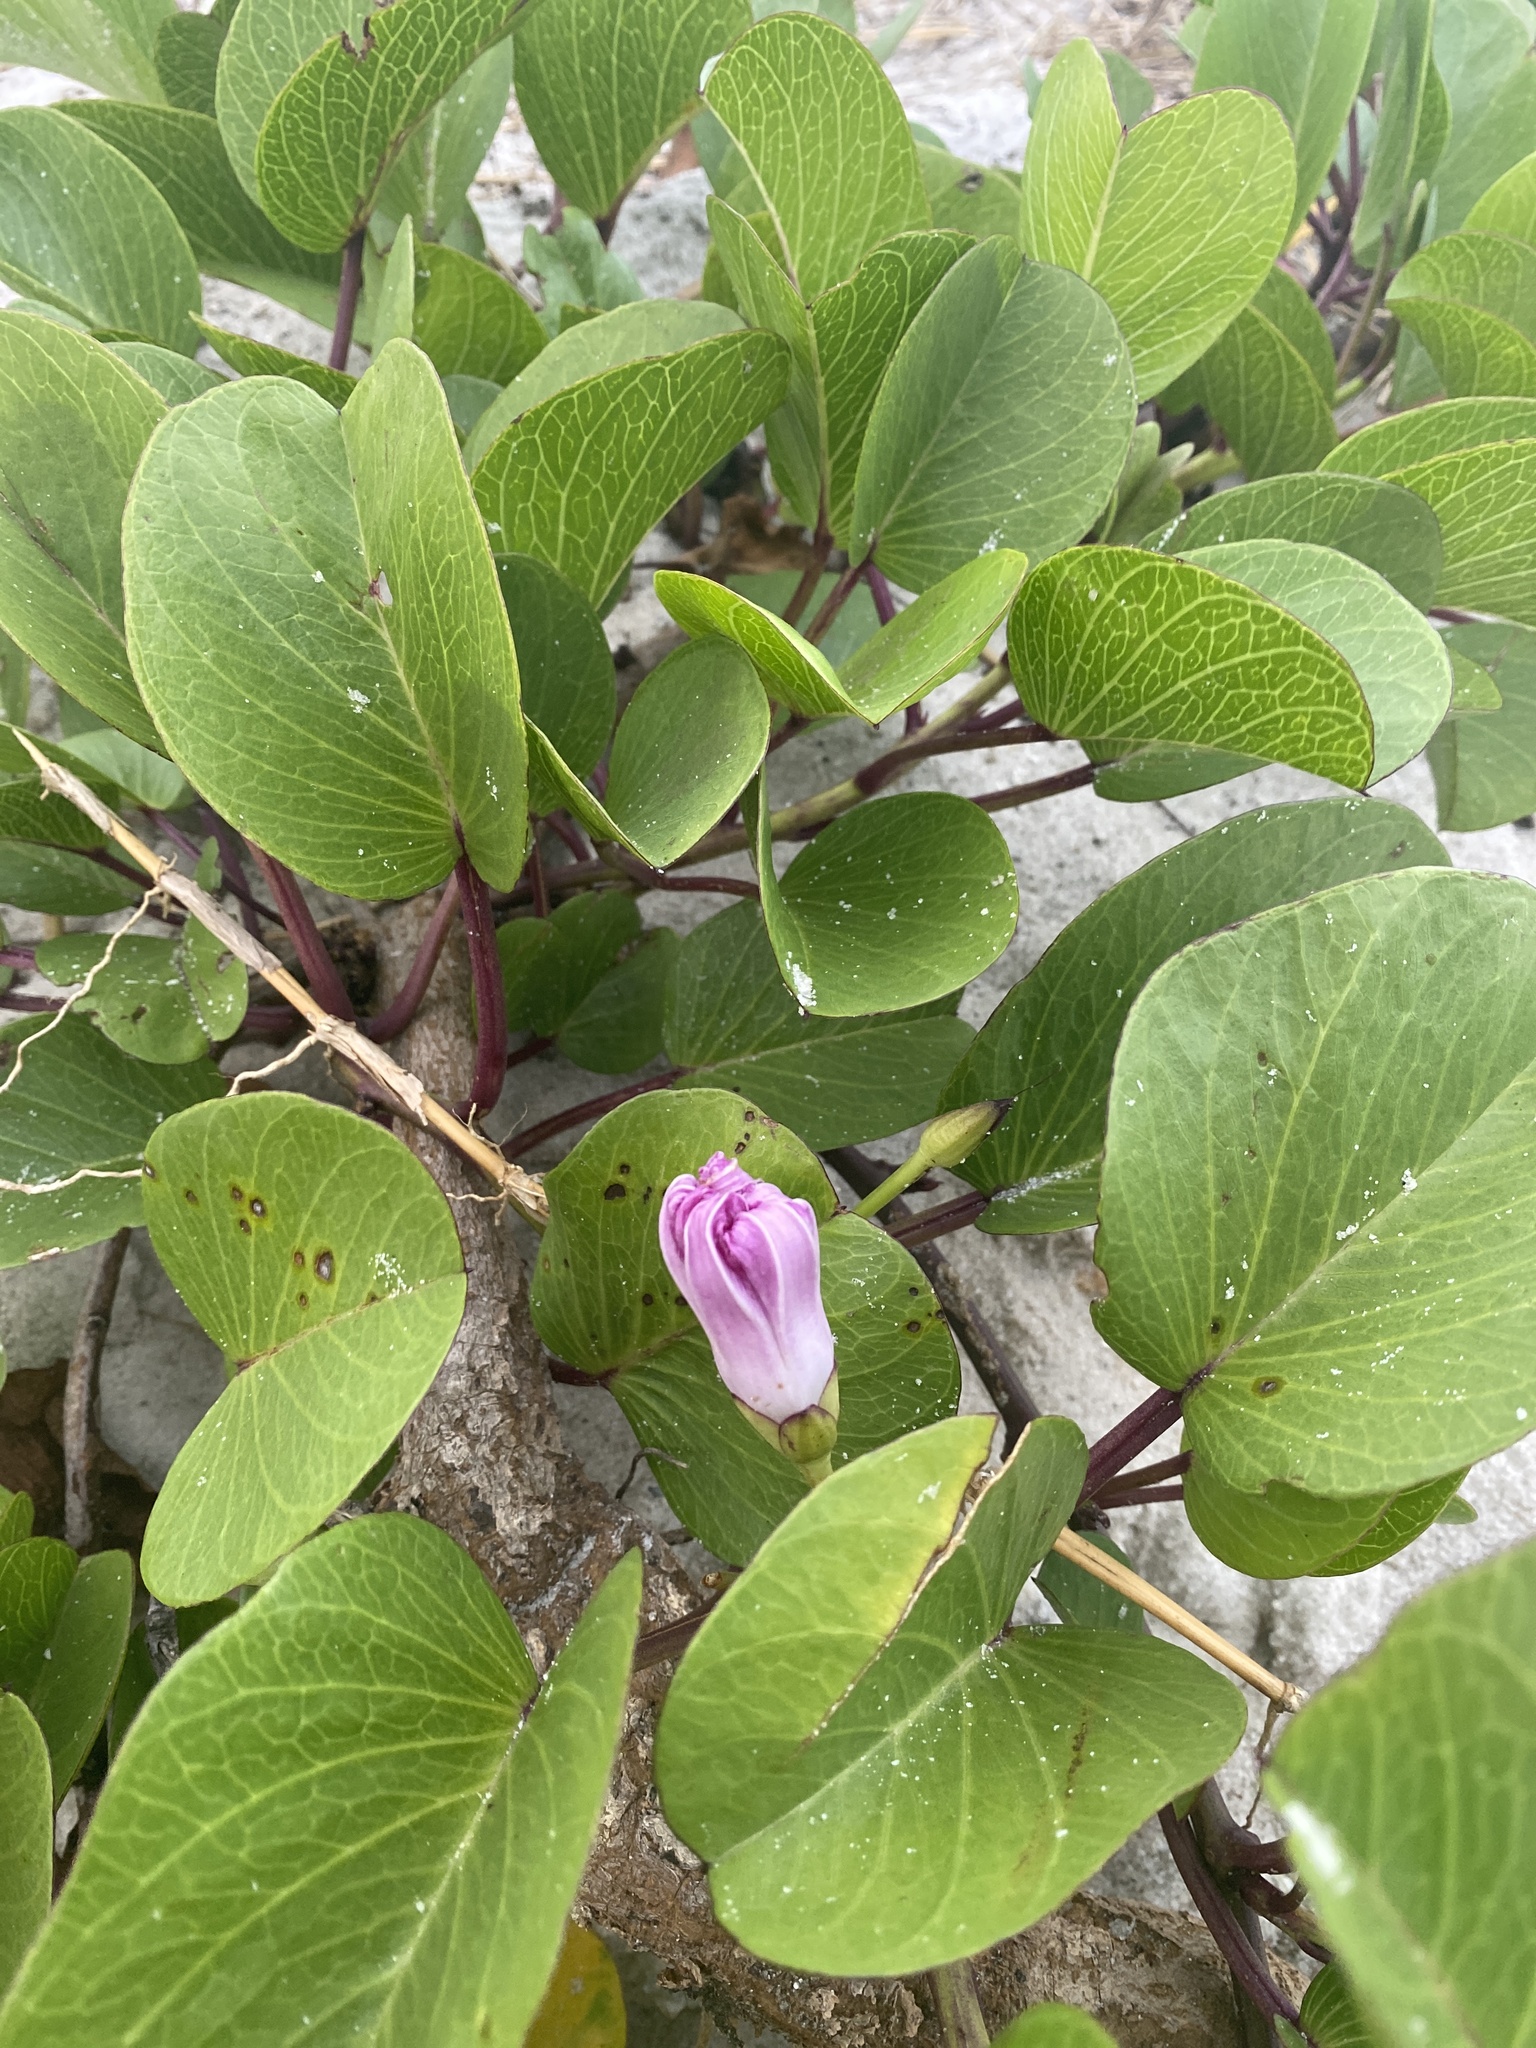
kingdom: Plantae
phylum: Tracheophyta
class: Magnoliopsida
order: Solanales
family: Convolvulaceae
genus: Ipomoea
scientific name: Ipomoea pes-caprae
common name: Beach morning glory
